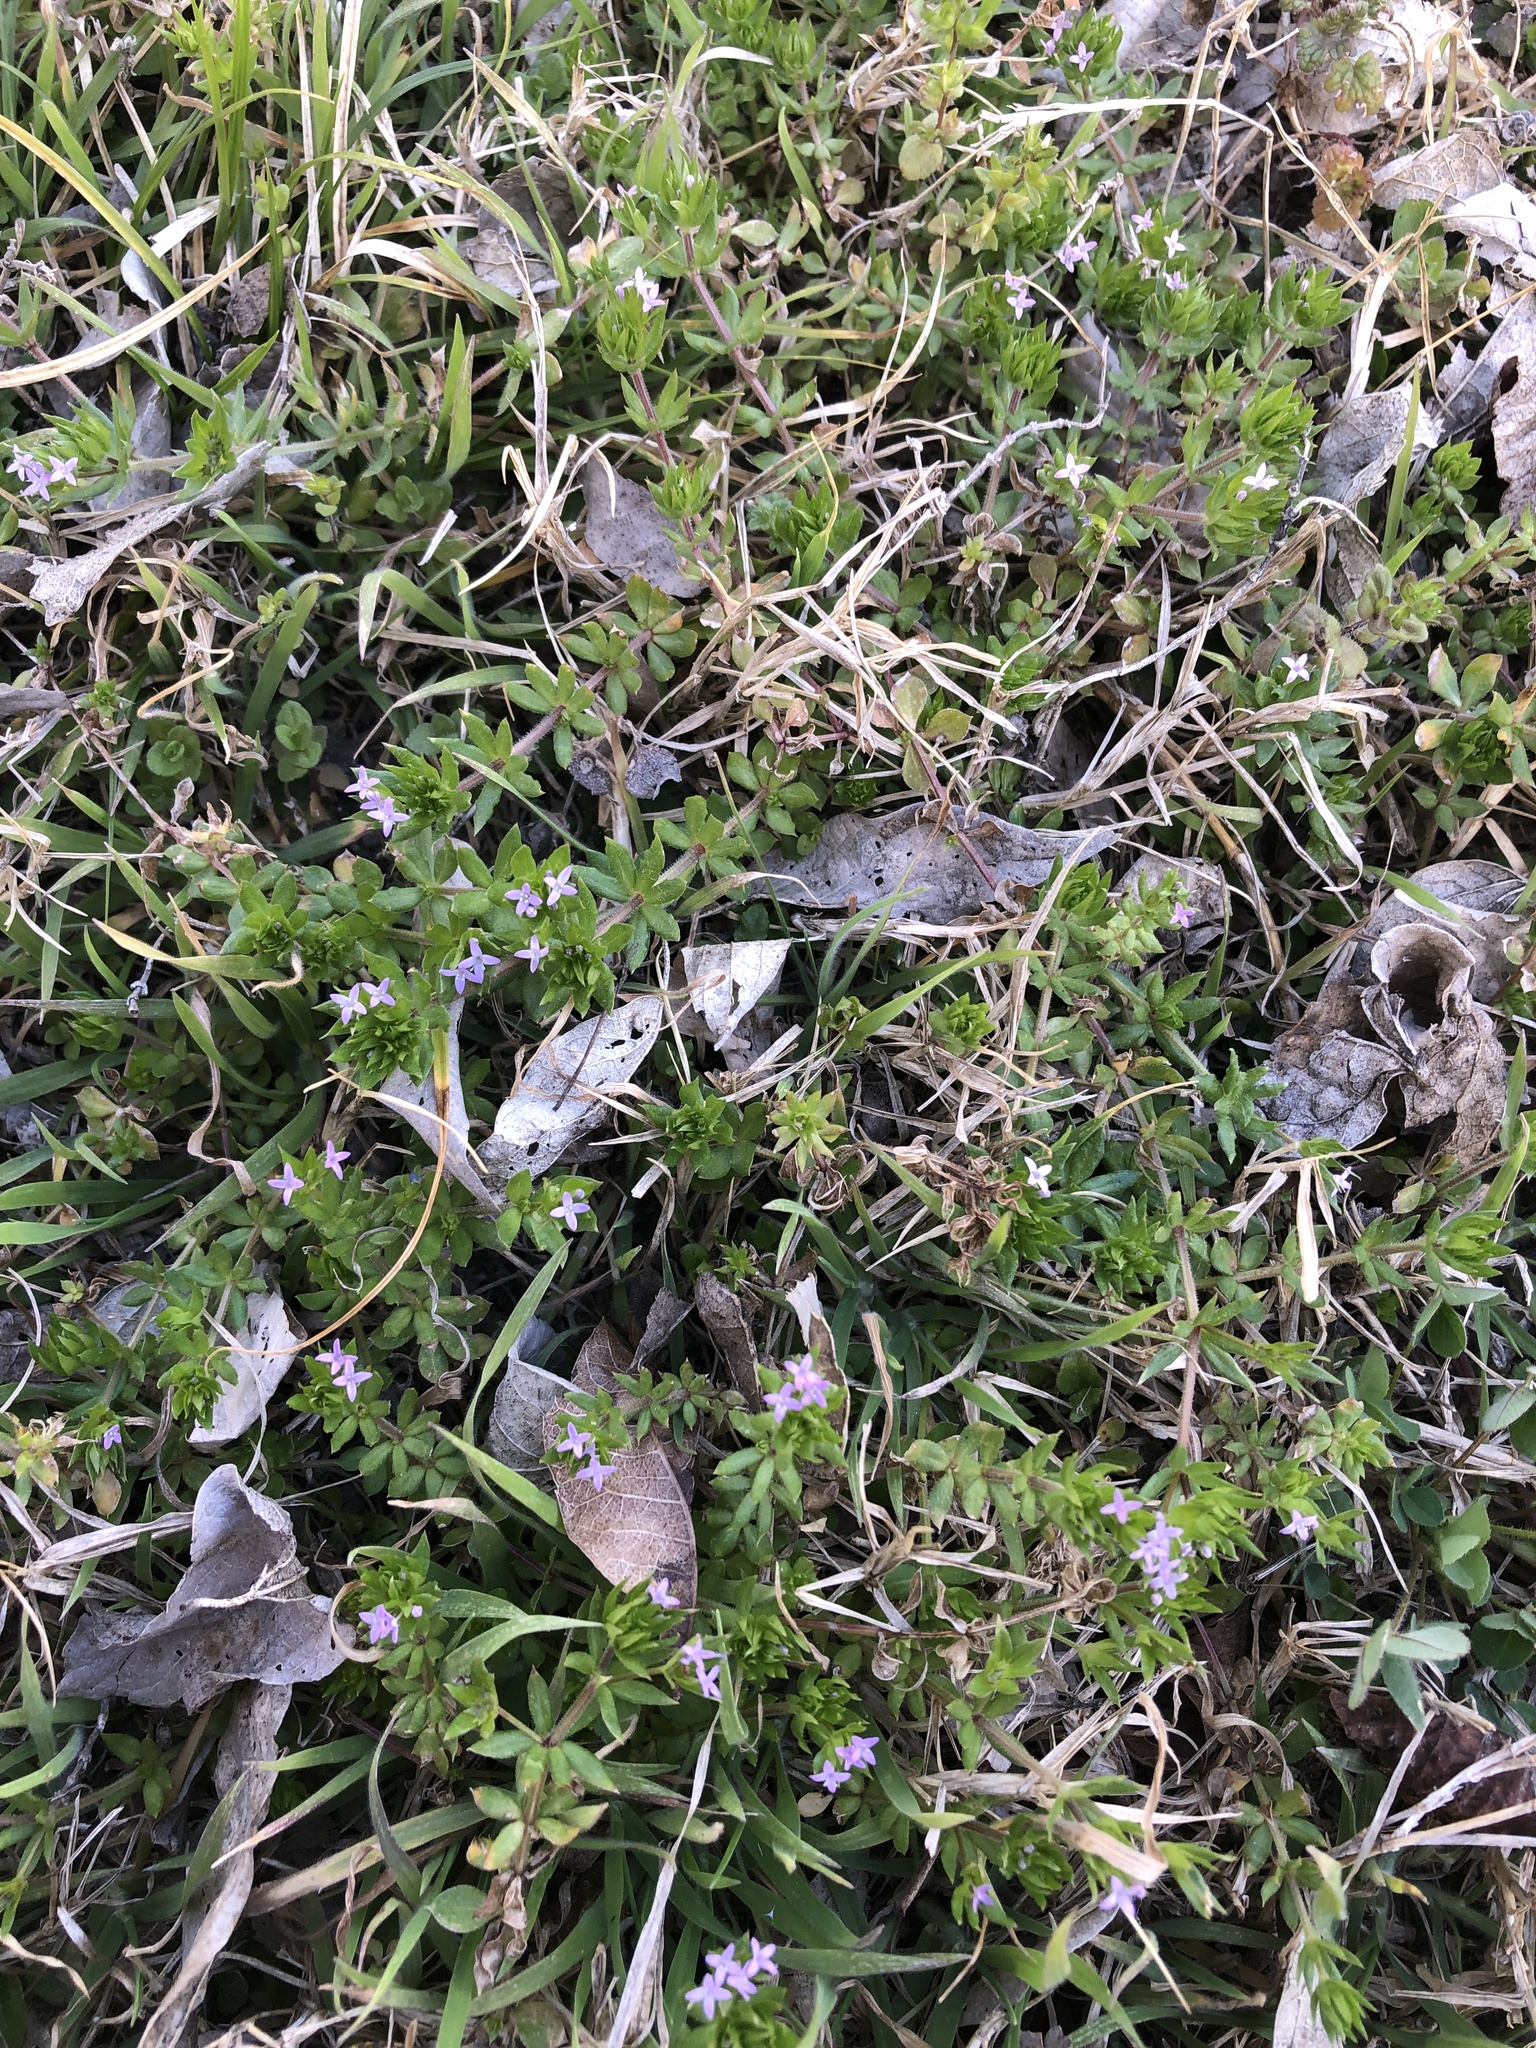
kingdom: Plantae
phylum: Tracheophyta
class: Magnoliopsida
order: Gentianales
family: Rubiaceae
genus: Sherardia
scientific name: Sherardia arvensis
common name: Field madder
